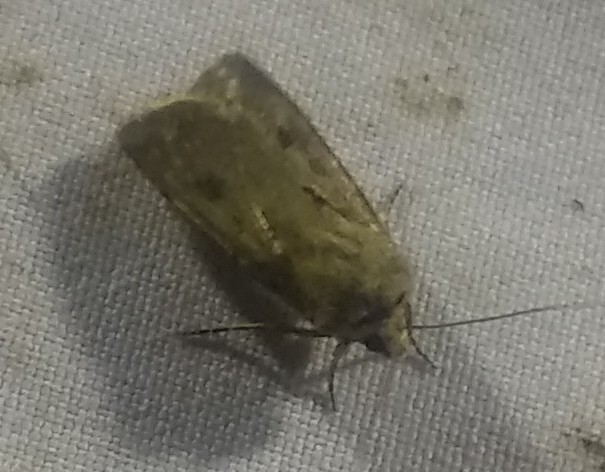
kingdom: Animalia
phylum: Arthropoda
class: Insecta
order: Lepidoptera
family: Noctuidae
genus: Agrotis
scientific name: Agrotis exclamationis
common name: Heart and dart
